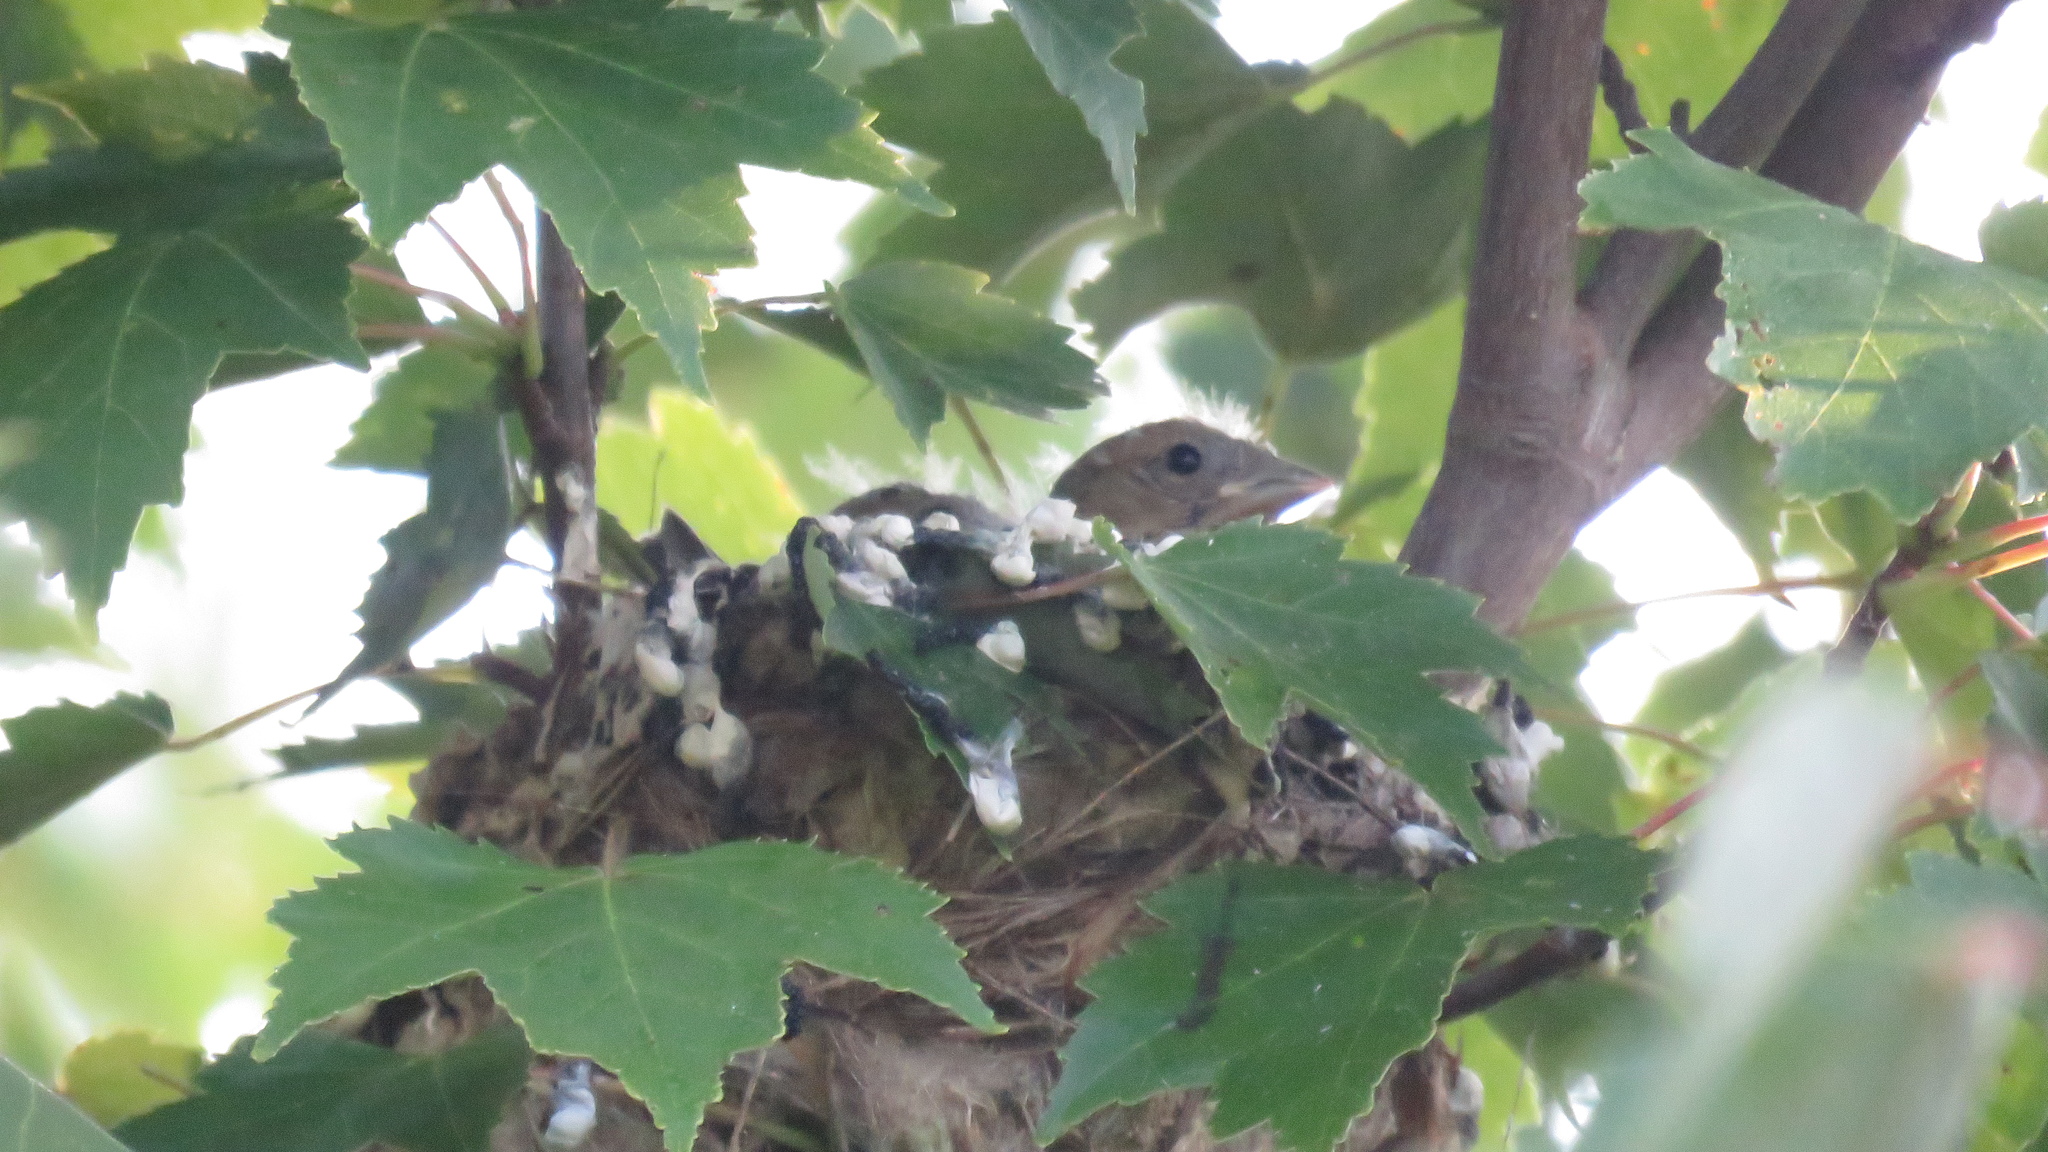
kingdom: Animalia
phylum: Chordata
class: Aves
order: Passeriformes
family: Fringillidae
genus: Spinus
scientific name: Spinus tristis
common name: American goldfinch
